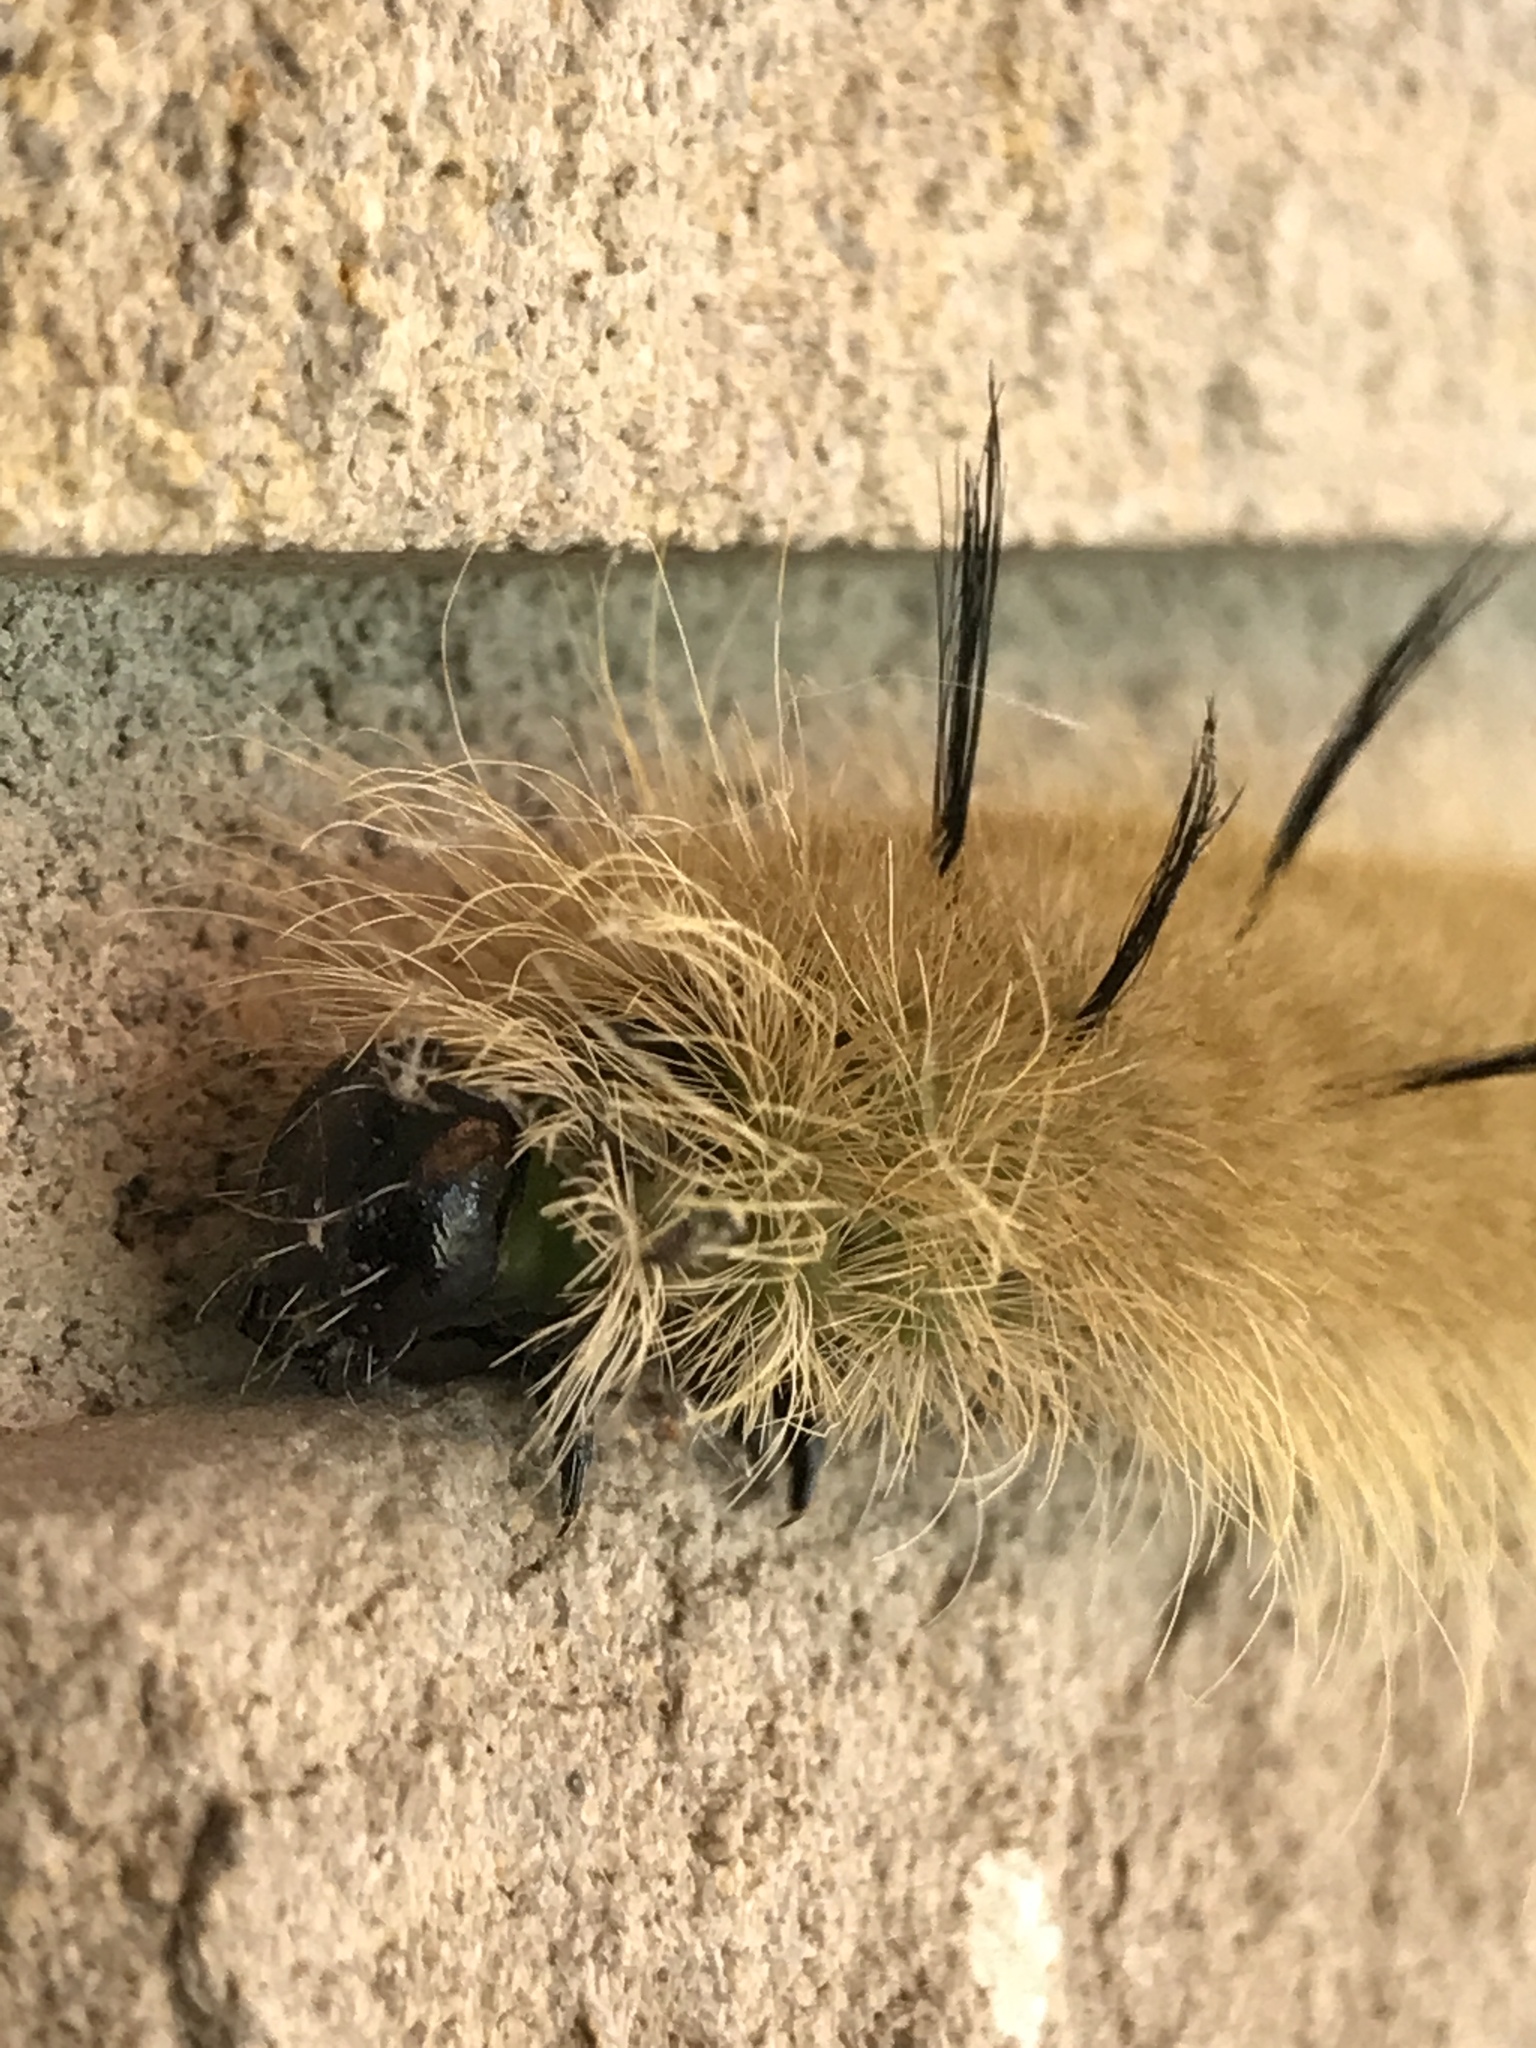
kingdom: Animalia
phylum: Arthropoda
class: Insecta
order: Lepidoptera
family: Noctuidae
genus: Acronicta
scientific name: Acronicta americana
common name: American dagger
